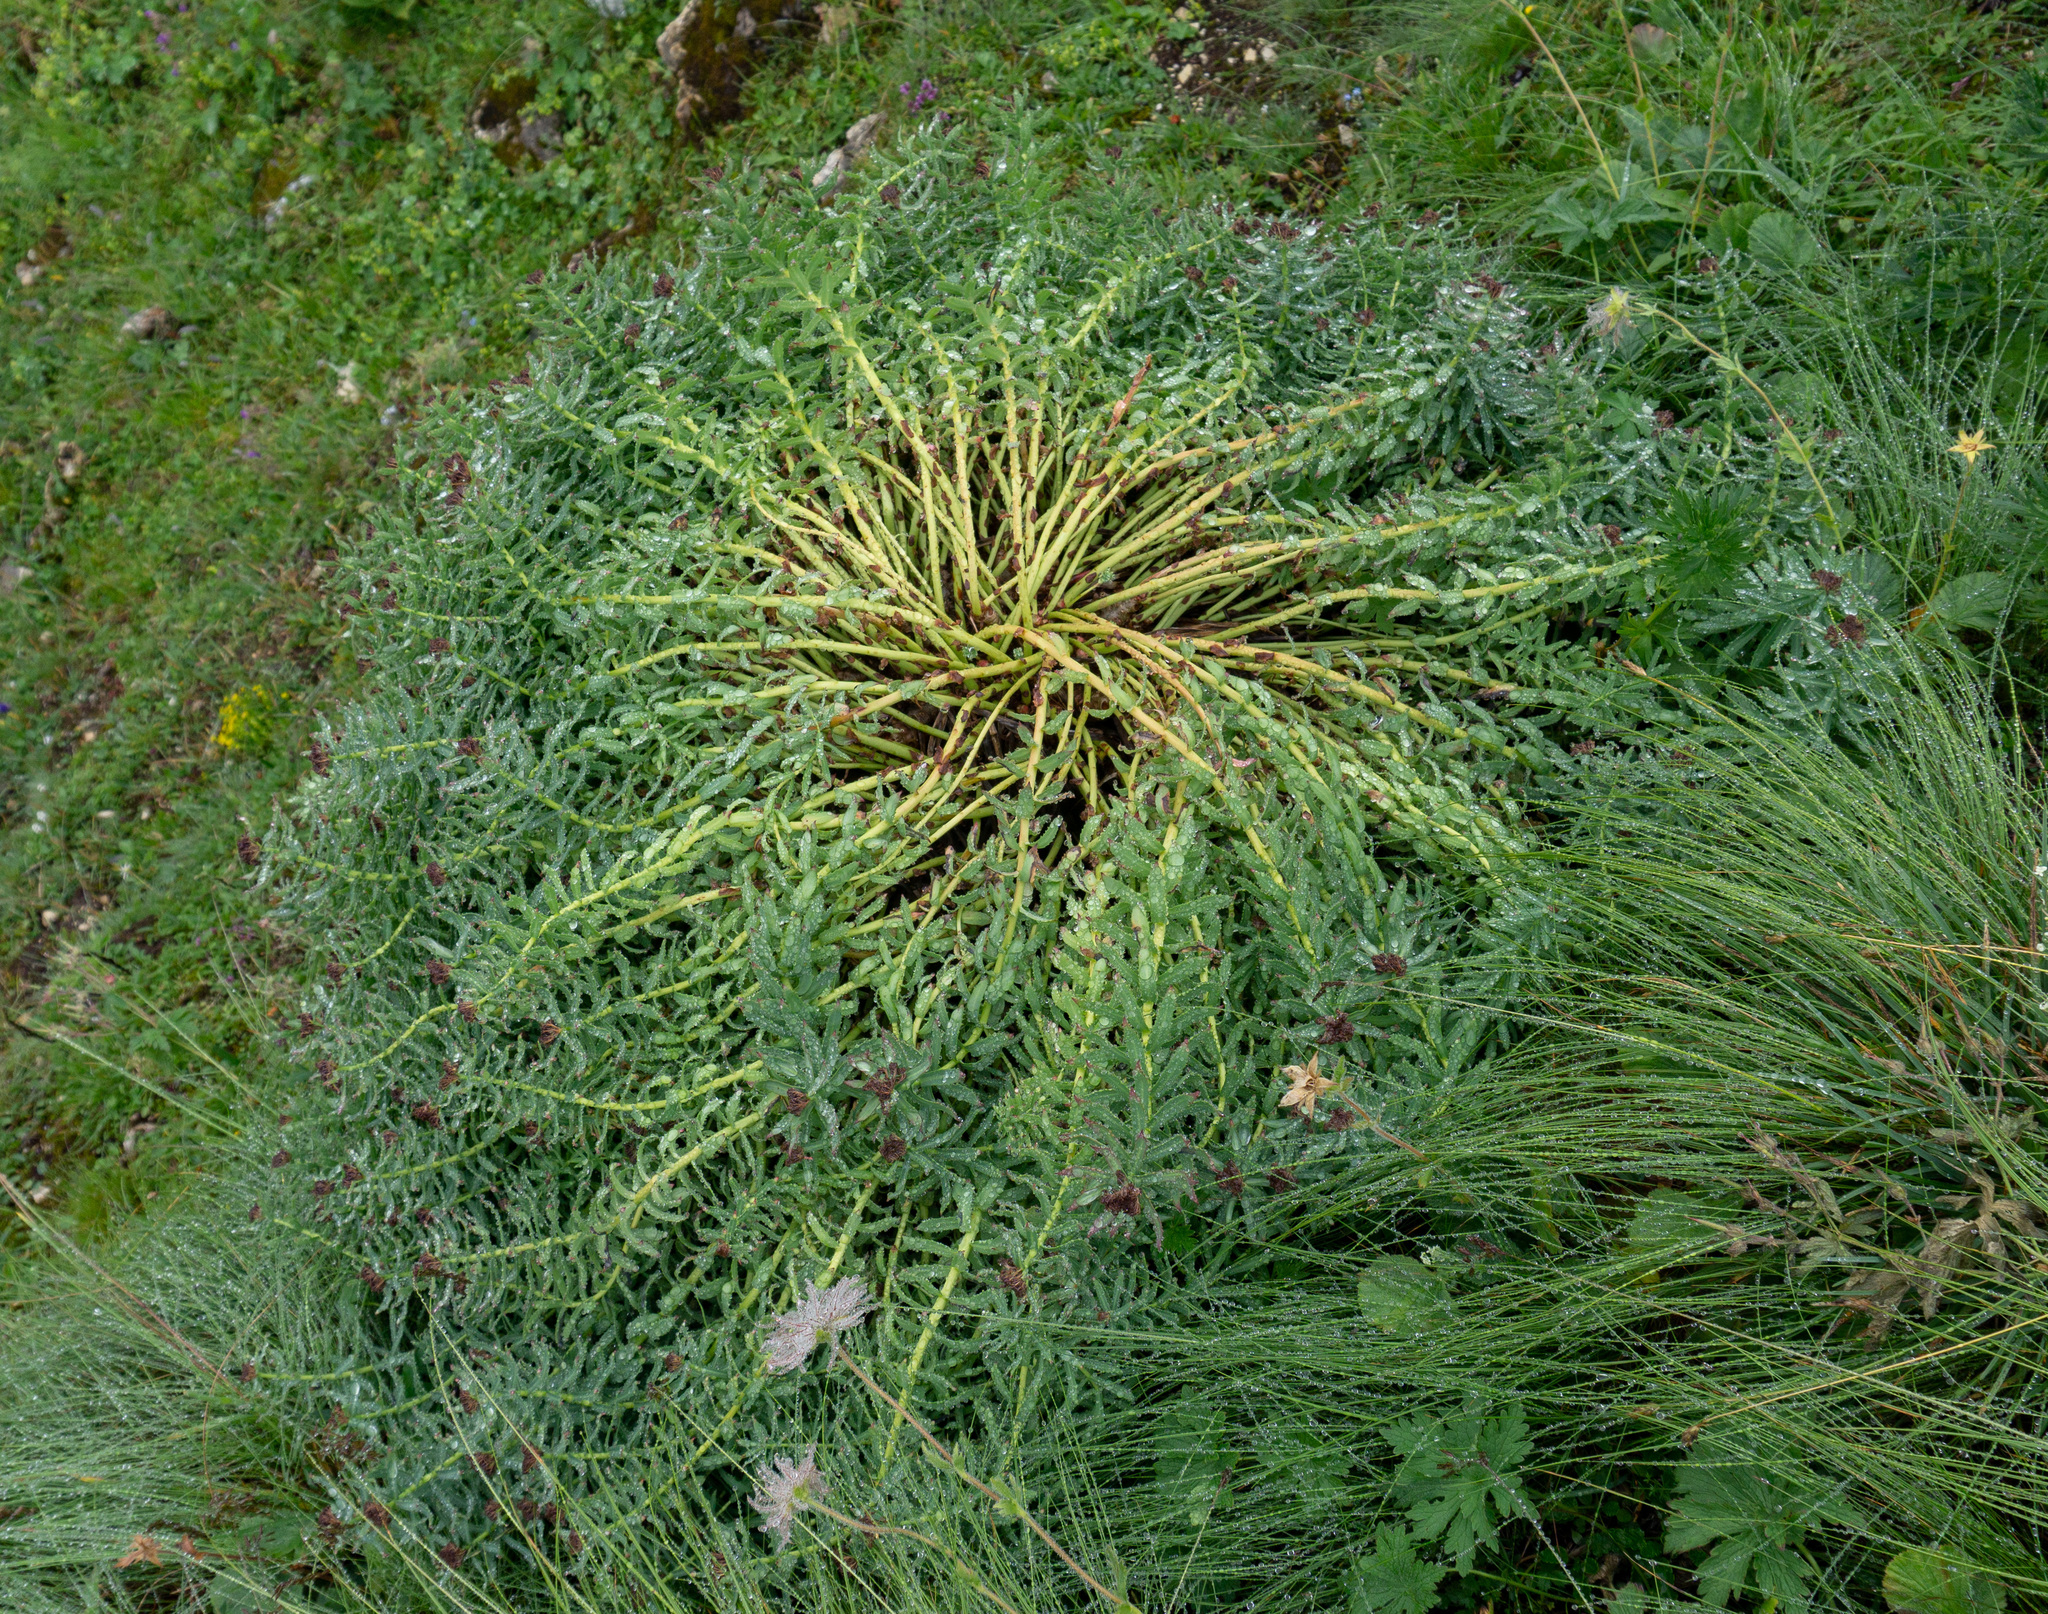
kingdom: Plantae
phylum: Tracheophyta
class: Magnoliopsida
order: Saxifragales
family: Crassulaceae
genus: Rhodiola
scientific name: Rhodiola rosea
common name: Roseroot
